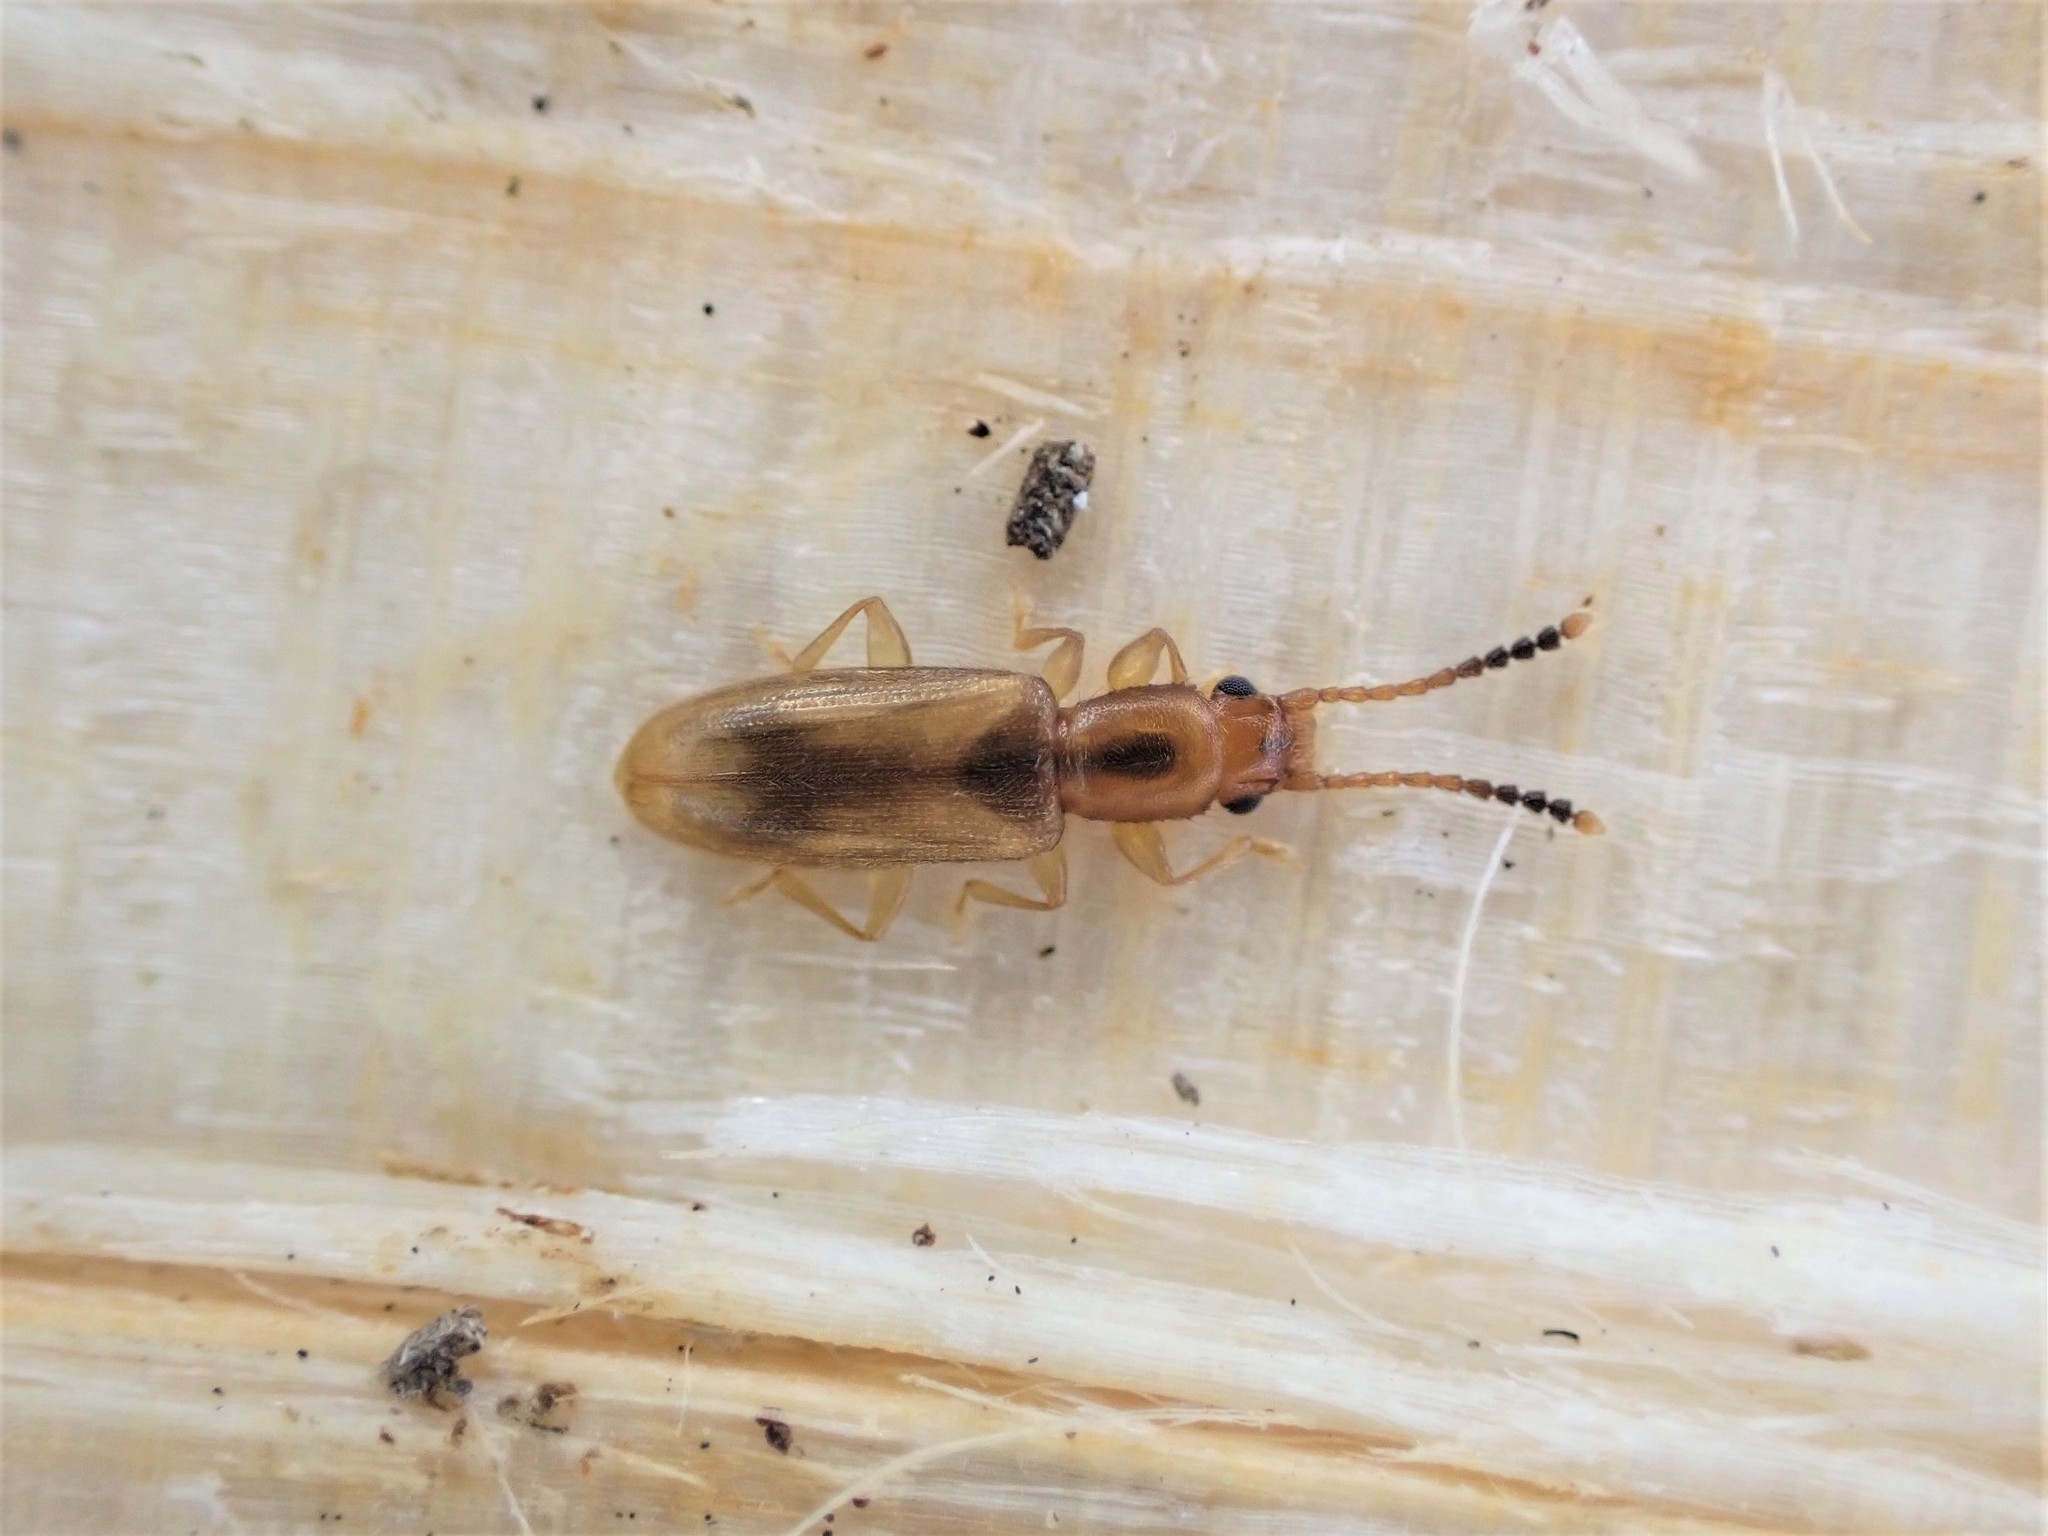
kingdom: Animalia
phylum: Arthropoda
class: Insecta
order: Coleoptera
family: Silvanidae
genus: Cryptamorpha
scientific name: Cryptamorpha desjardinsi
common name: Cryptamorpha
